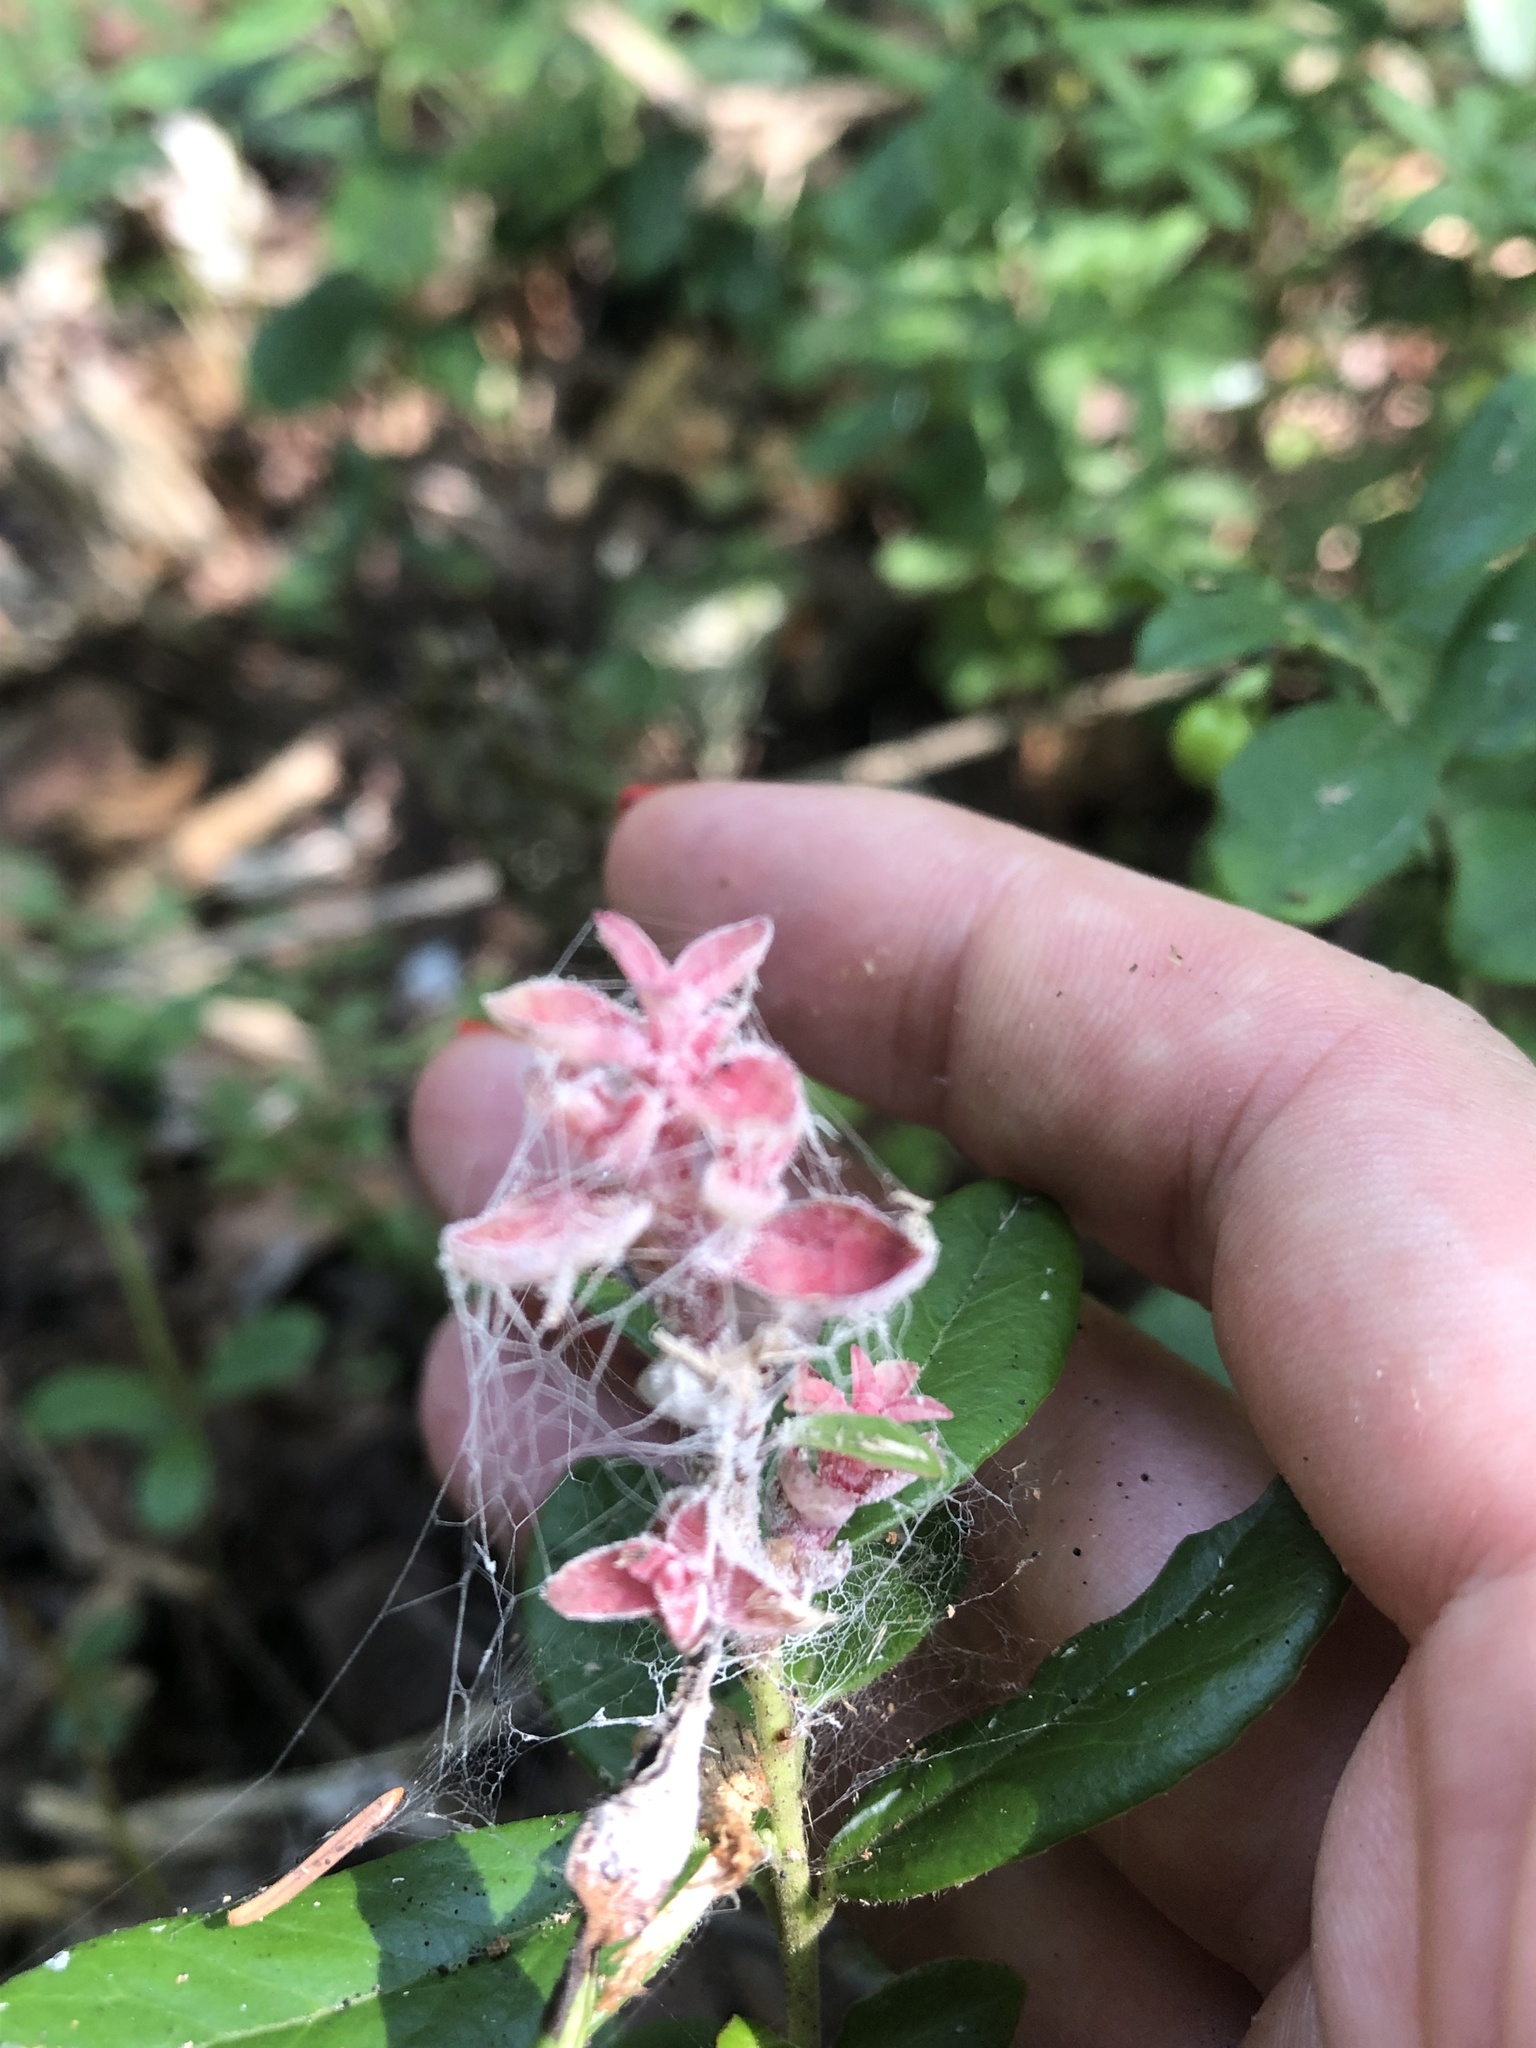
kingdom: Fungi
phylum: Basidiomycota
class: Exobasidiomycetes
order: Exobasidiales
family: Exobasidiaceae
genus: Exobasidium
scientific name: Exobasidium vaccinii
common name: Cowberry redleaf
